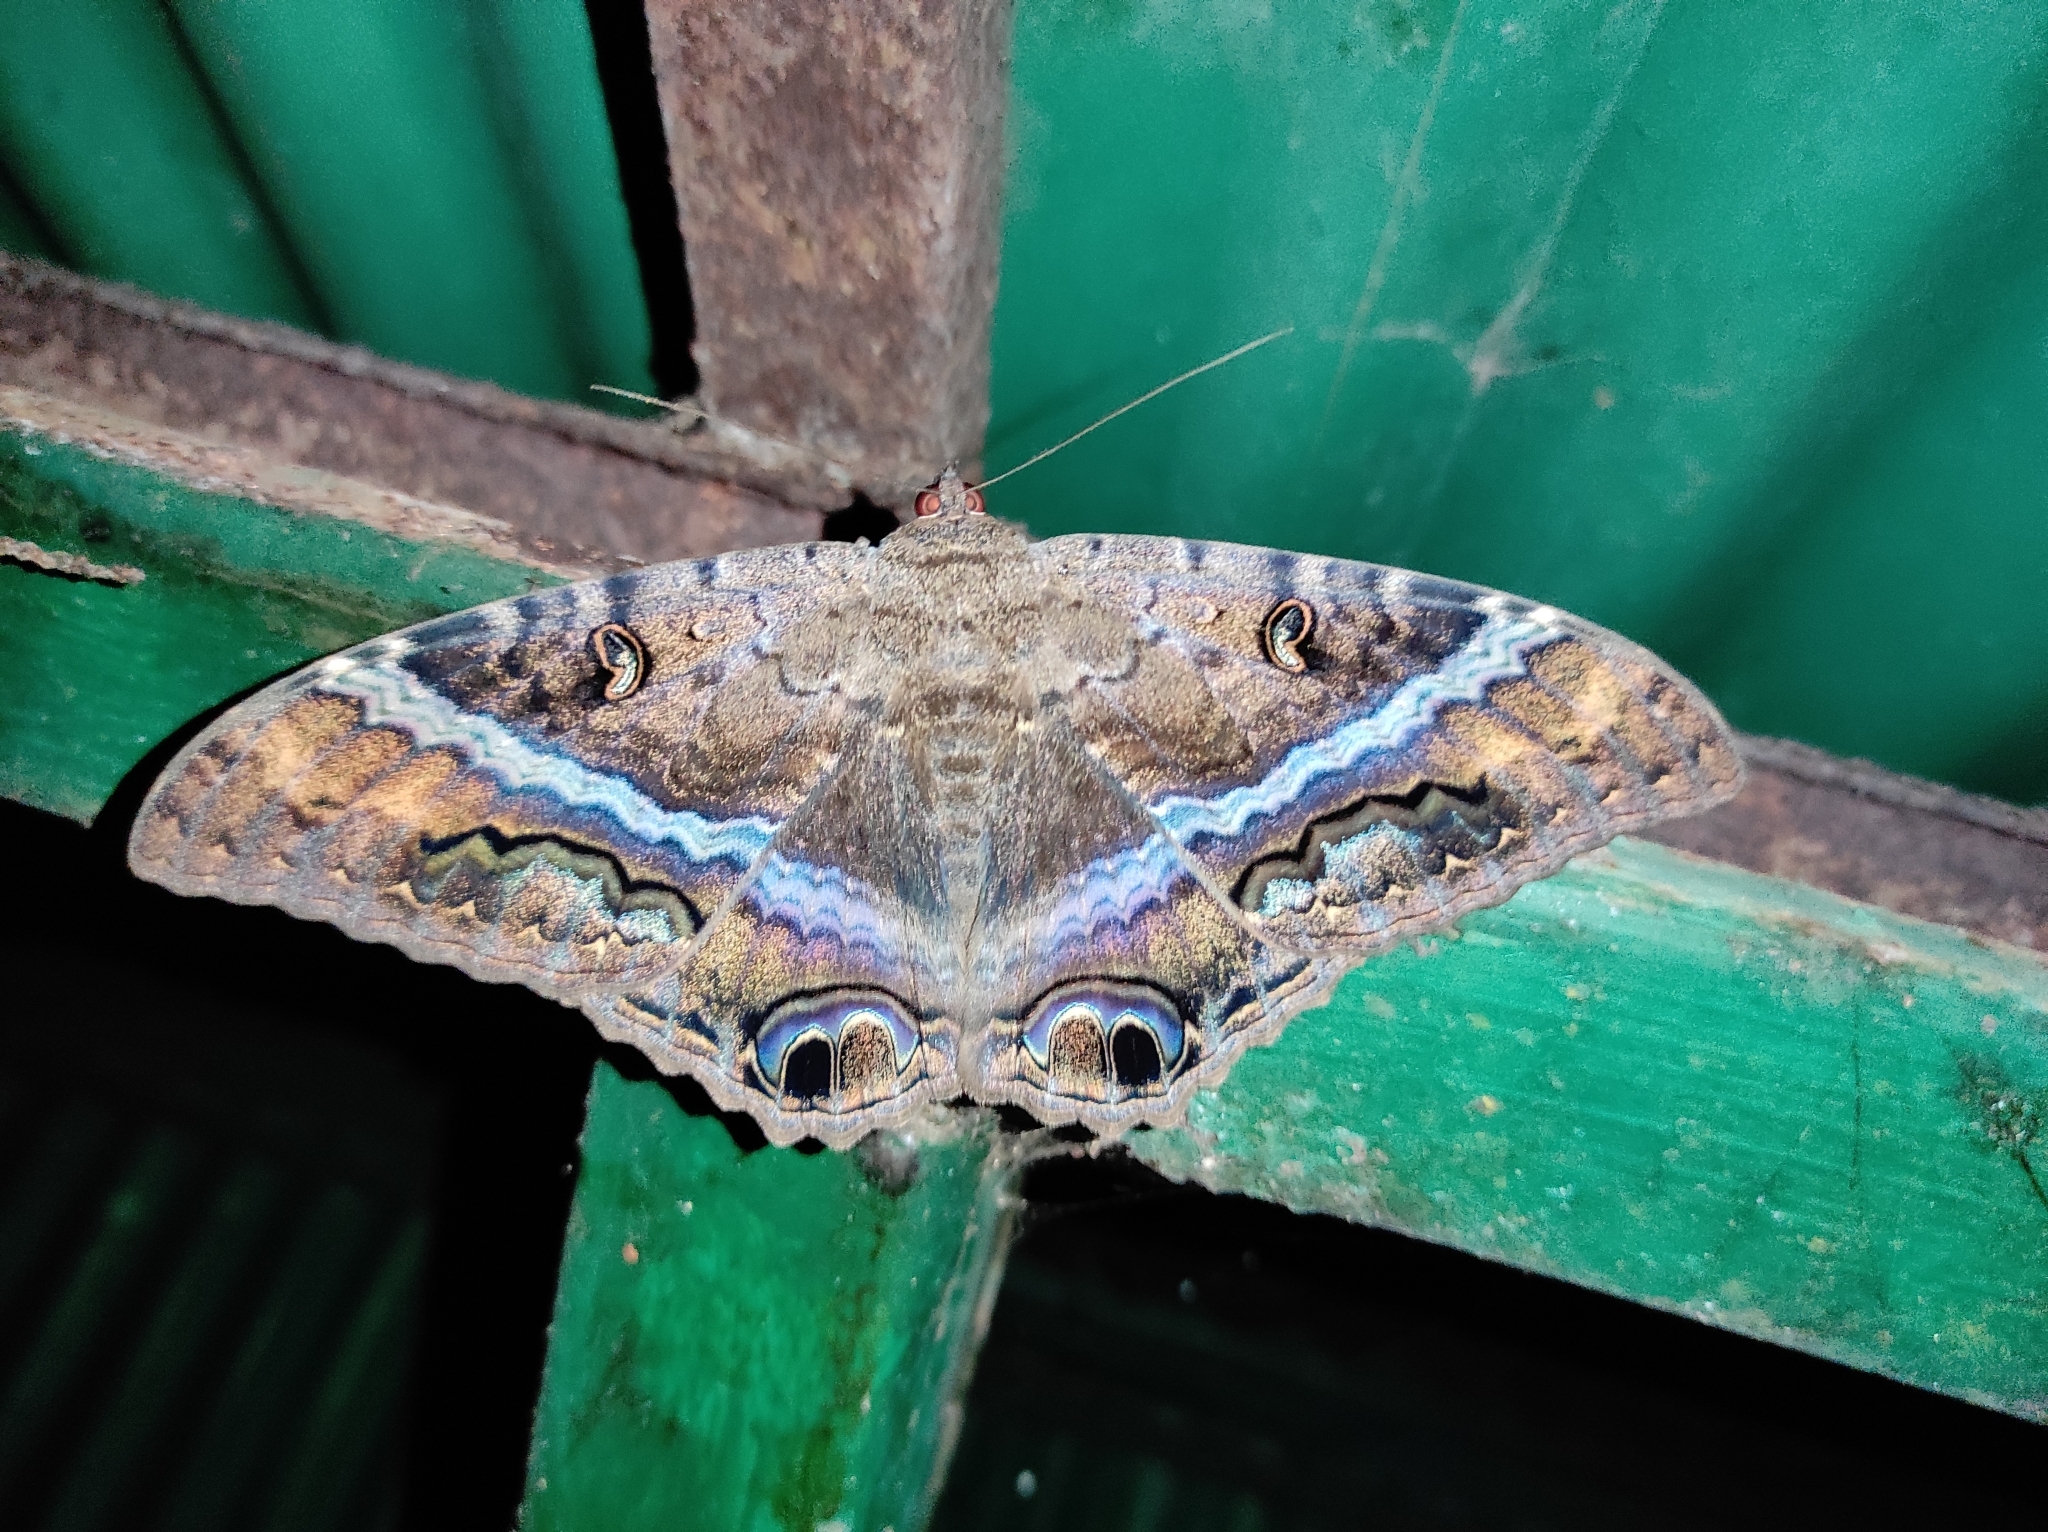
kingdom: Animalia
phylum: Arthropoda
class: Insecta
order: Lepidoptera
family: Erebidae
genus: Ascalapha
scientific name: Ascalapha odorata
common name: Black witch
